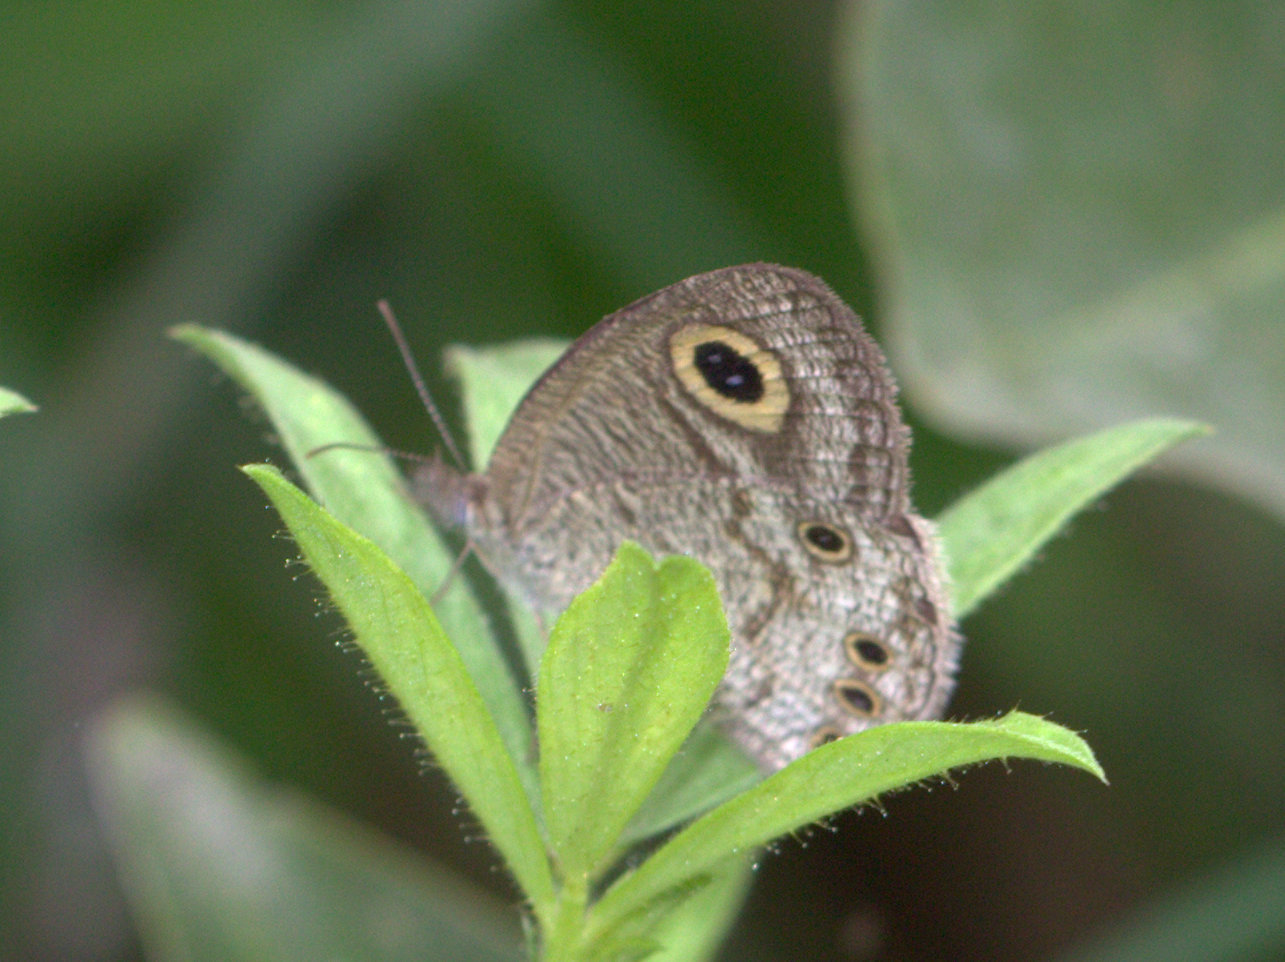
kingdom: Animalia
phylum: Arthropoda
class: Insecta
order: Lepidoptera
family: Nymphalidae
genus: Ypthima
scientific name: Ypthima huebneri
